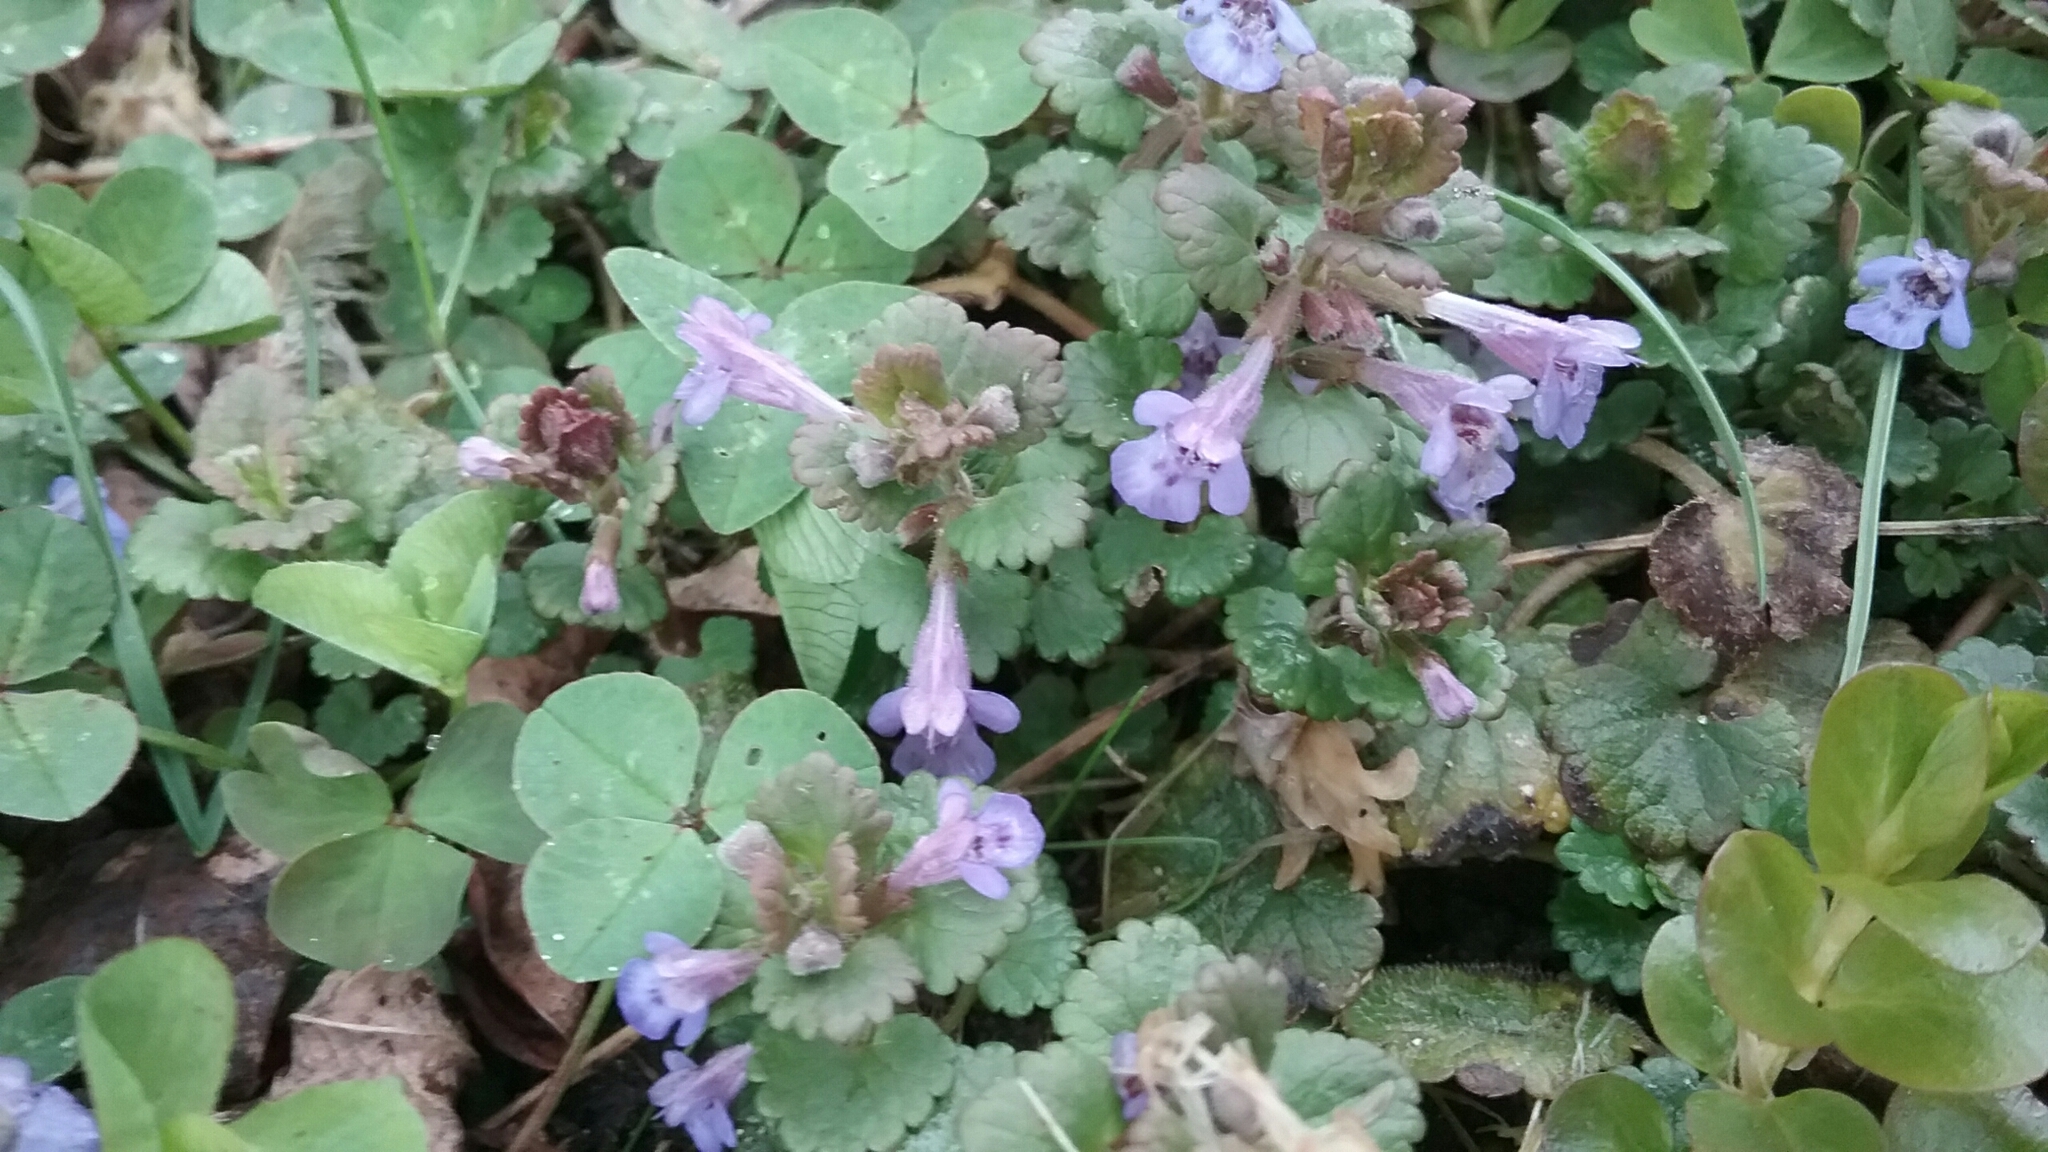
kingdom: Plantae
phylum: Tracheophyta
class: Magnoliopsida
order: Lamiales
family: Lamiaceae
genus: Glechoma
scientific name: Glechoma hederacea
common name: Ground ivy
